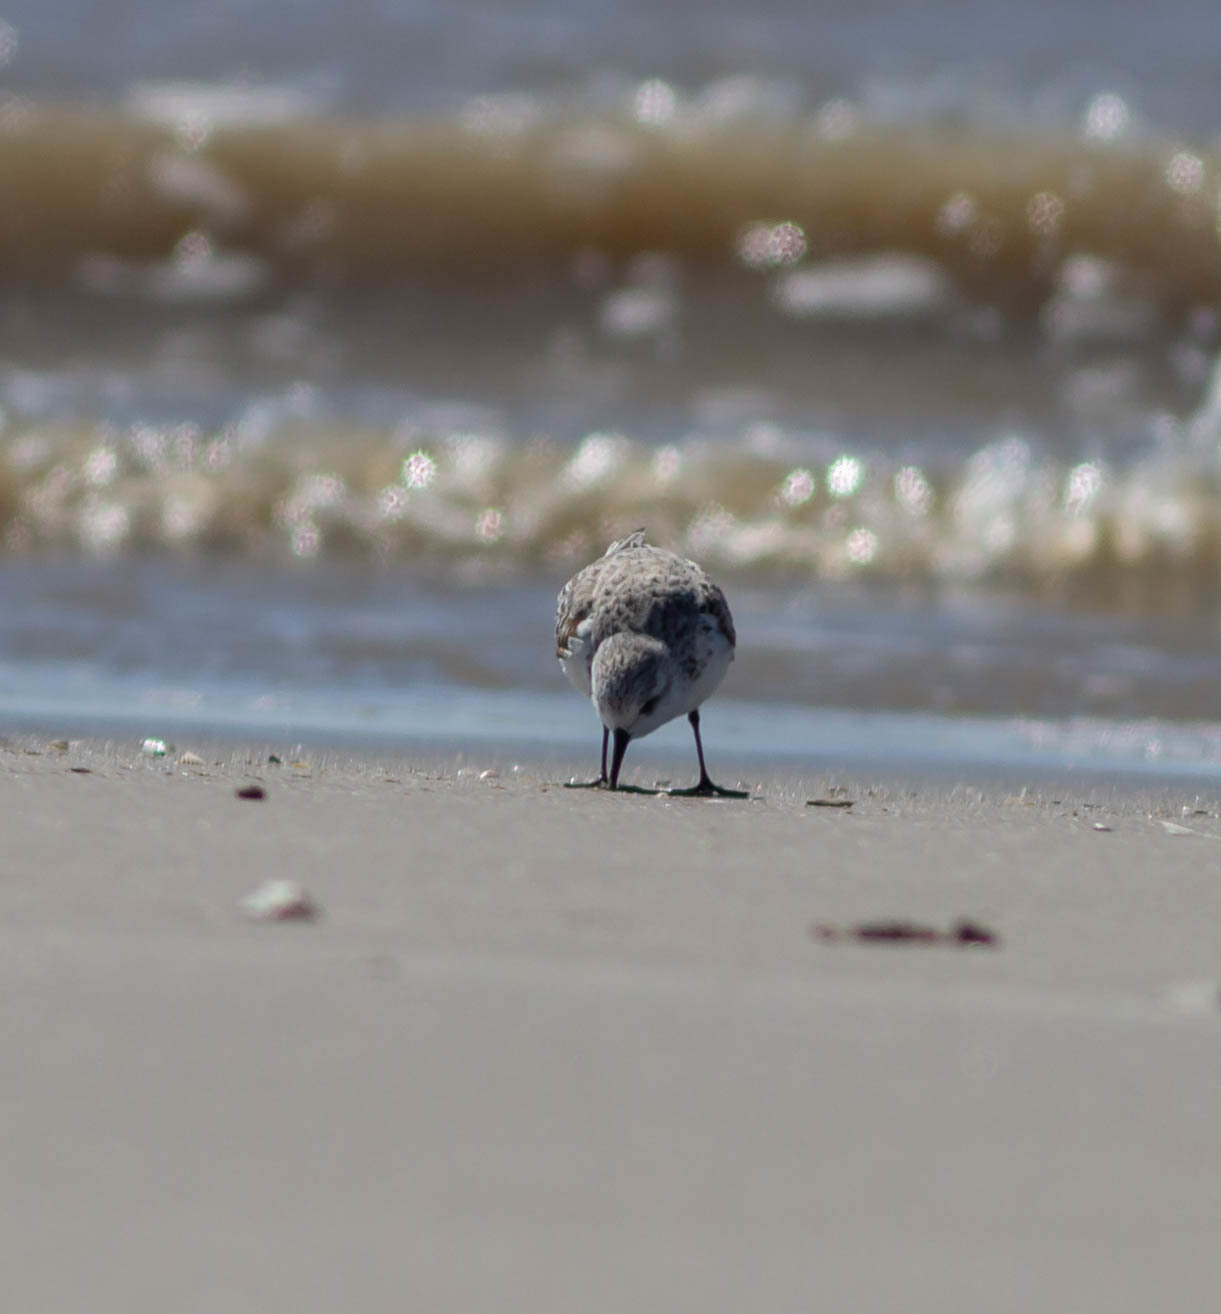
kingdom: Animalia
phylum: Chordata
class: Aves
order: Charadriiformes
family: Scolopacidae
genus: Calidris
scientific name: Calidris alba
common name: Sanderling
